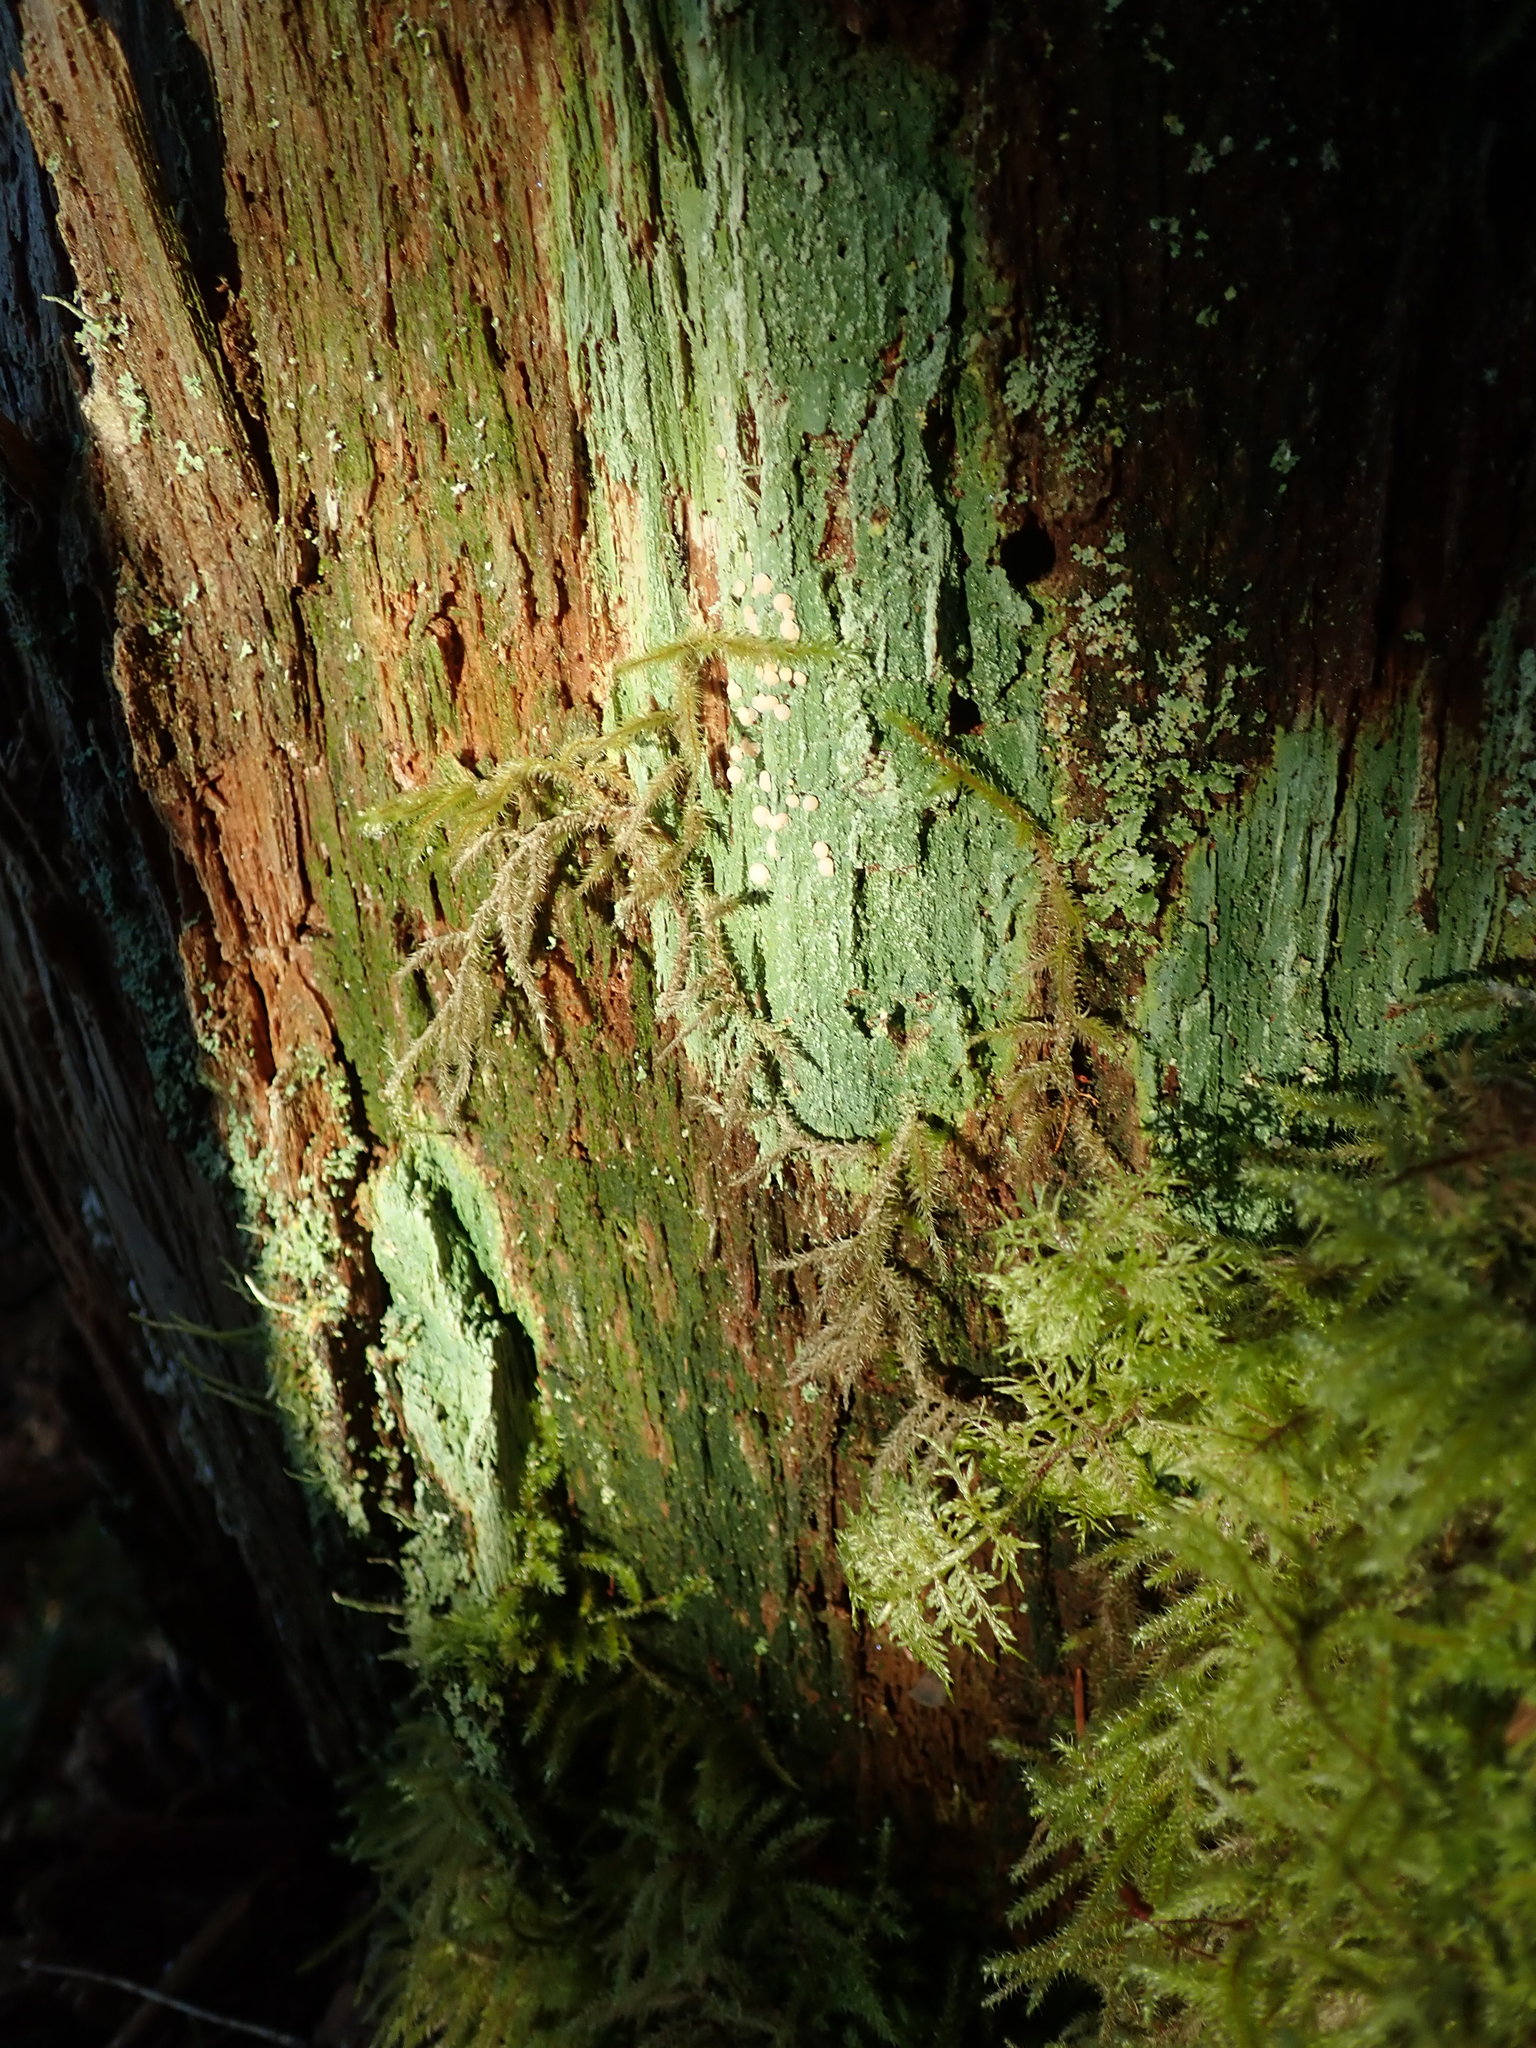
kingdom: Fungi
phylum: Ascomycota
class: Lecanoromycetes
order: Pertusariales
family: Icmadophilaceae
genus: Icmadophila
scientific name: Icmadophila ericetorum
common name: Candy lichen
